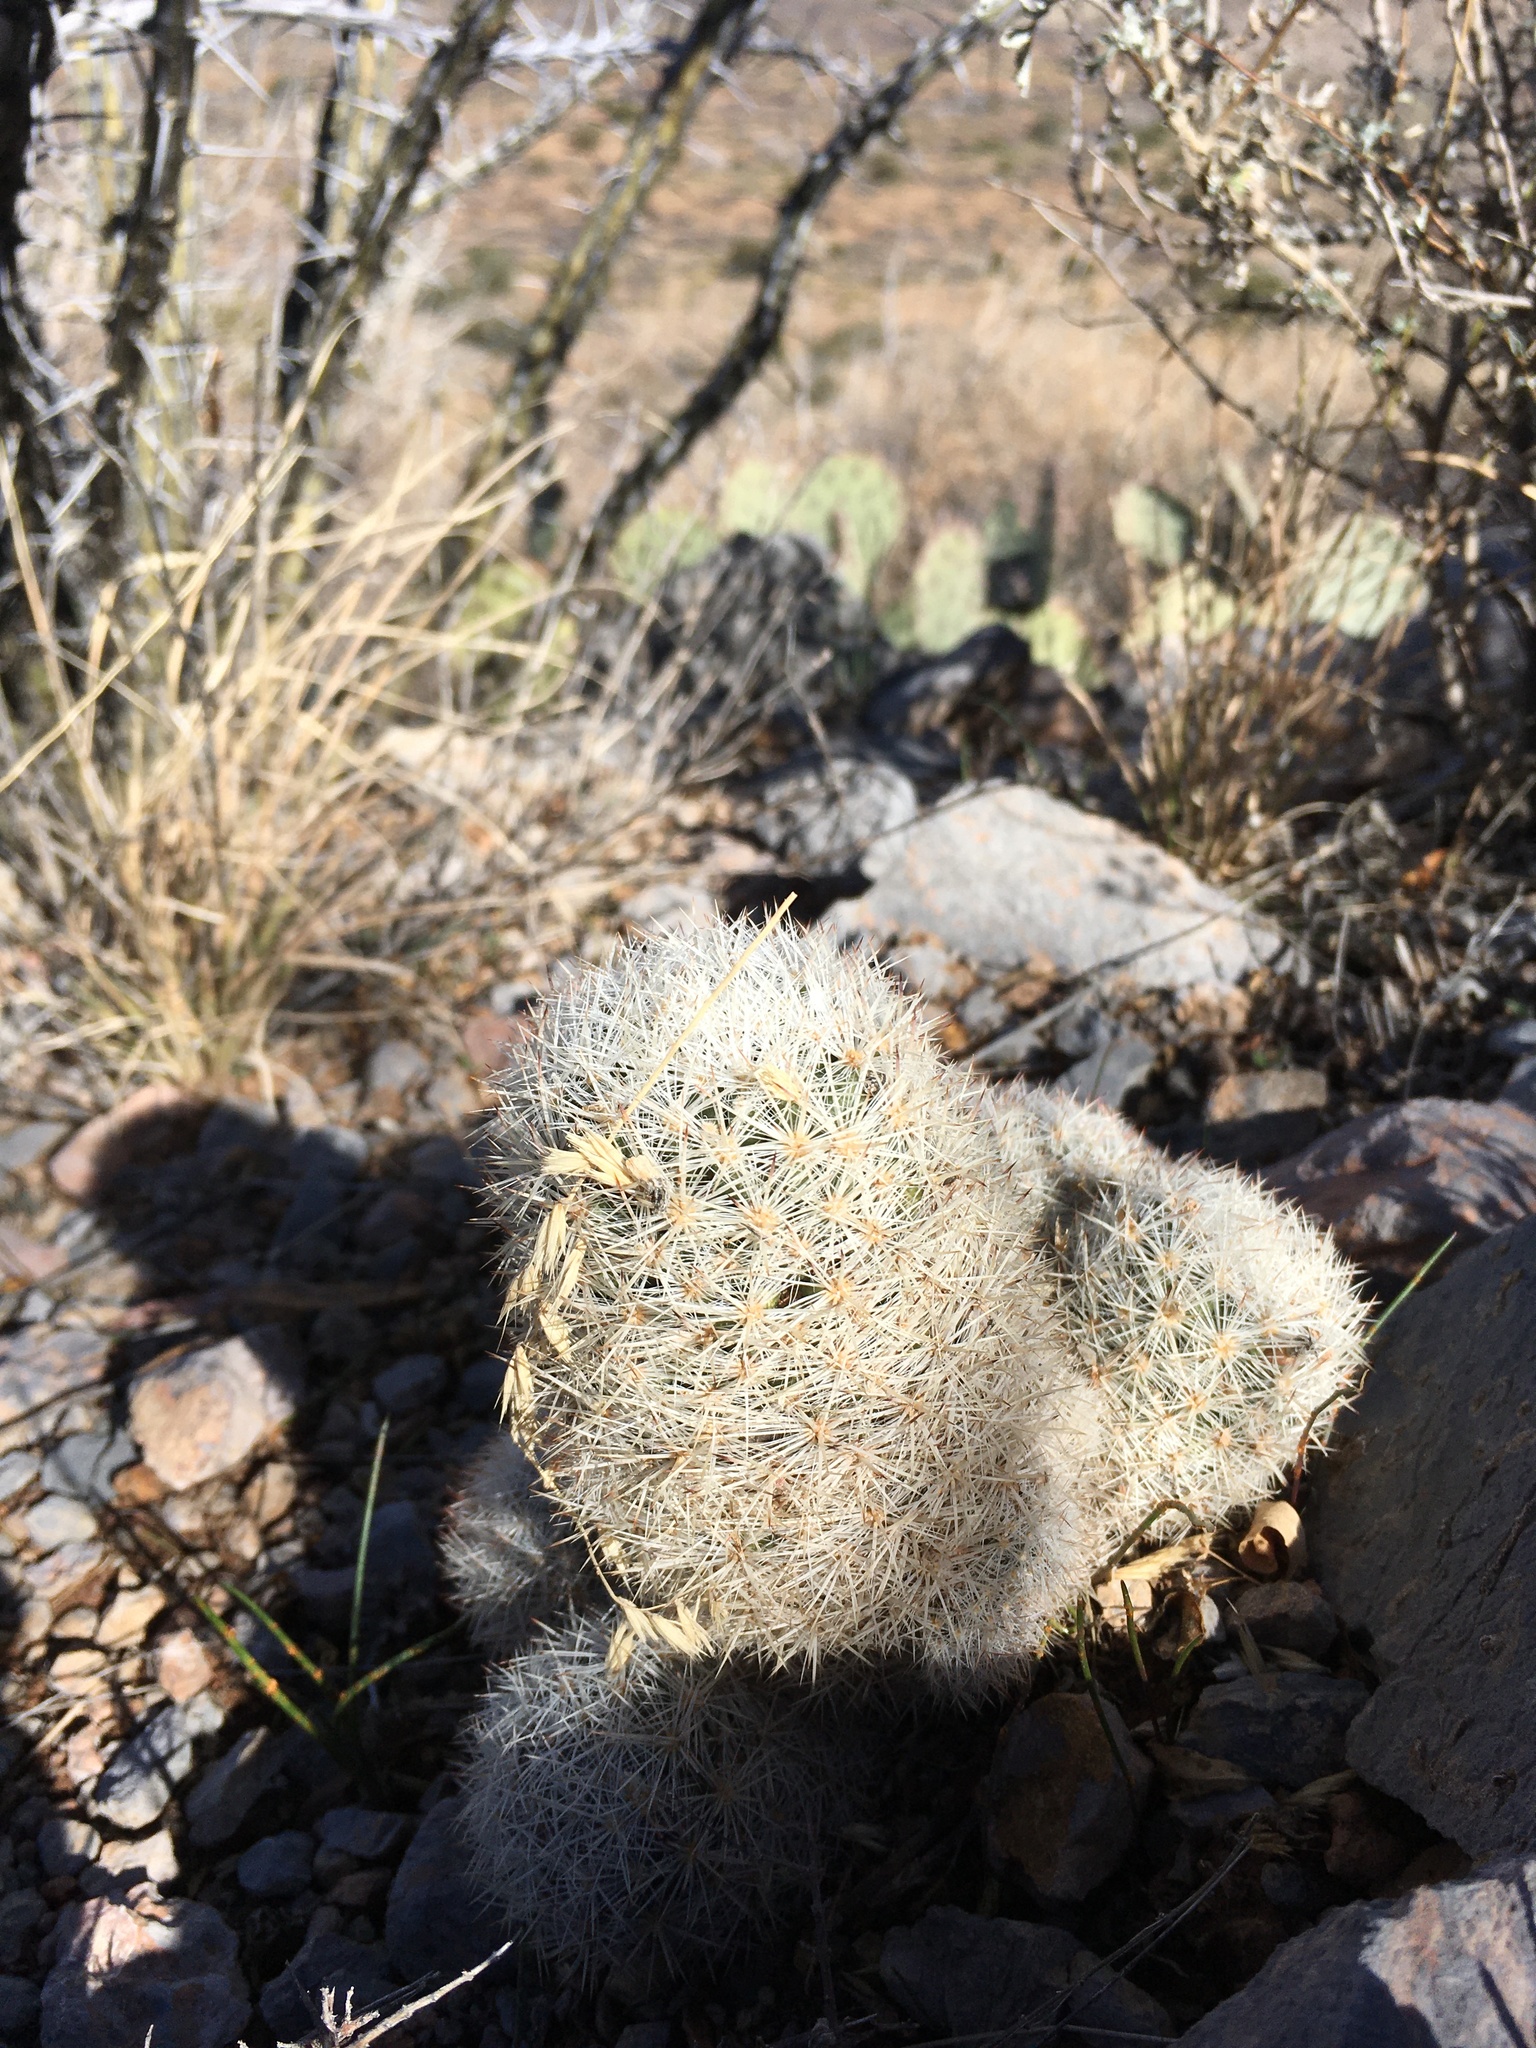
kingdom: Plantae
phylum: Tracheophyta
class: Magnoliopsida
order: Caryophyllales
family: Cactaceae
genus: Pelecyphora
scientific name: Pelecyphora sneedii
